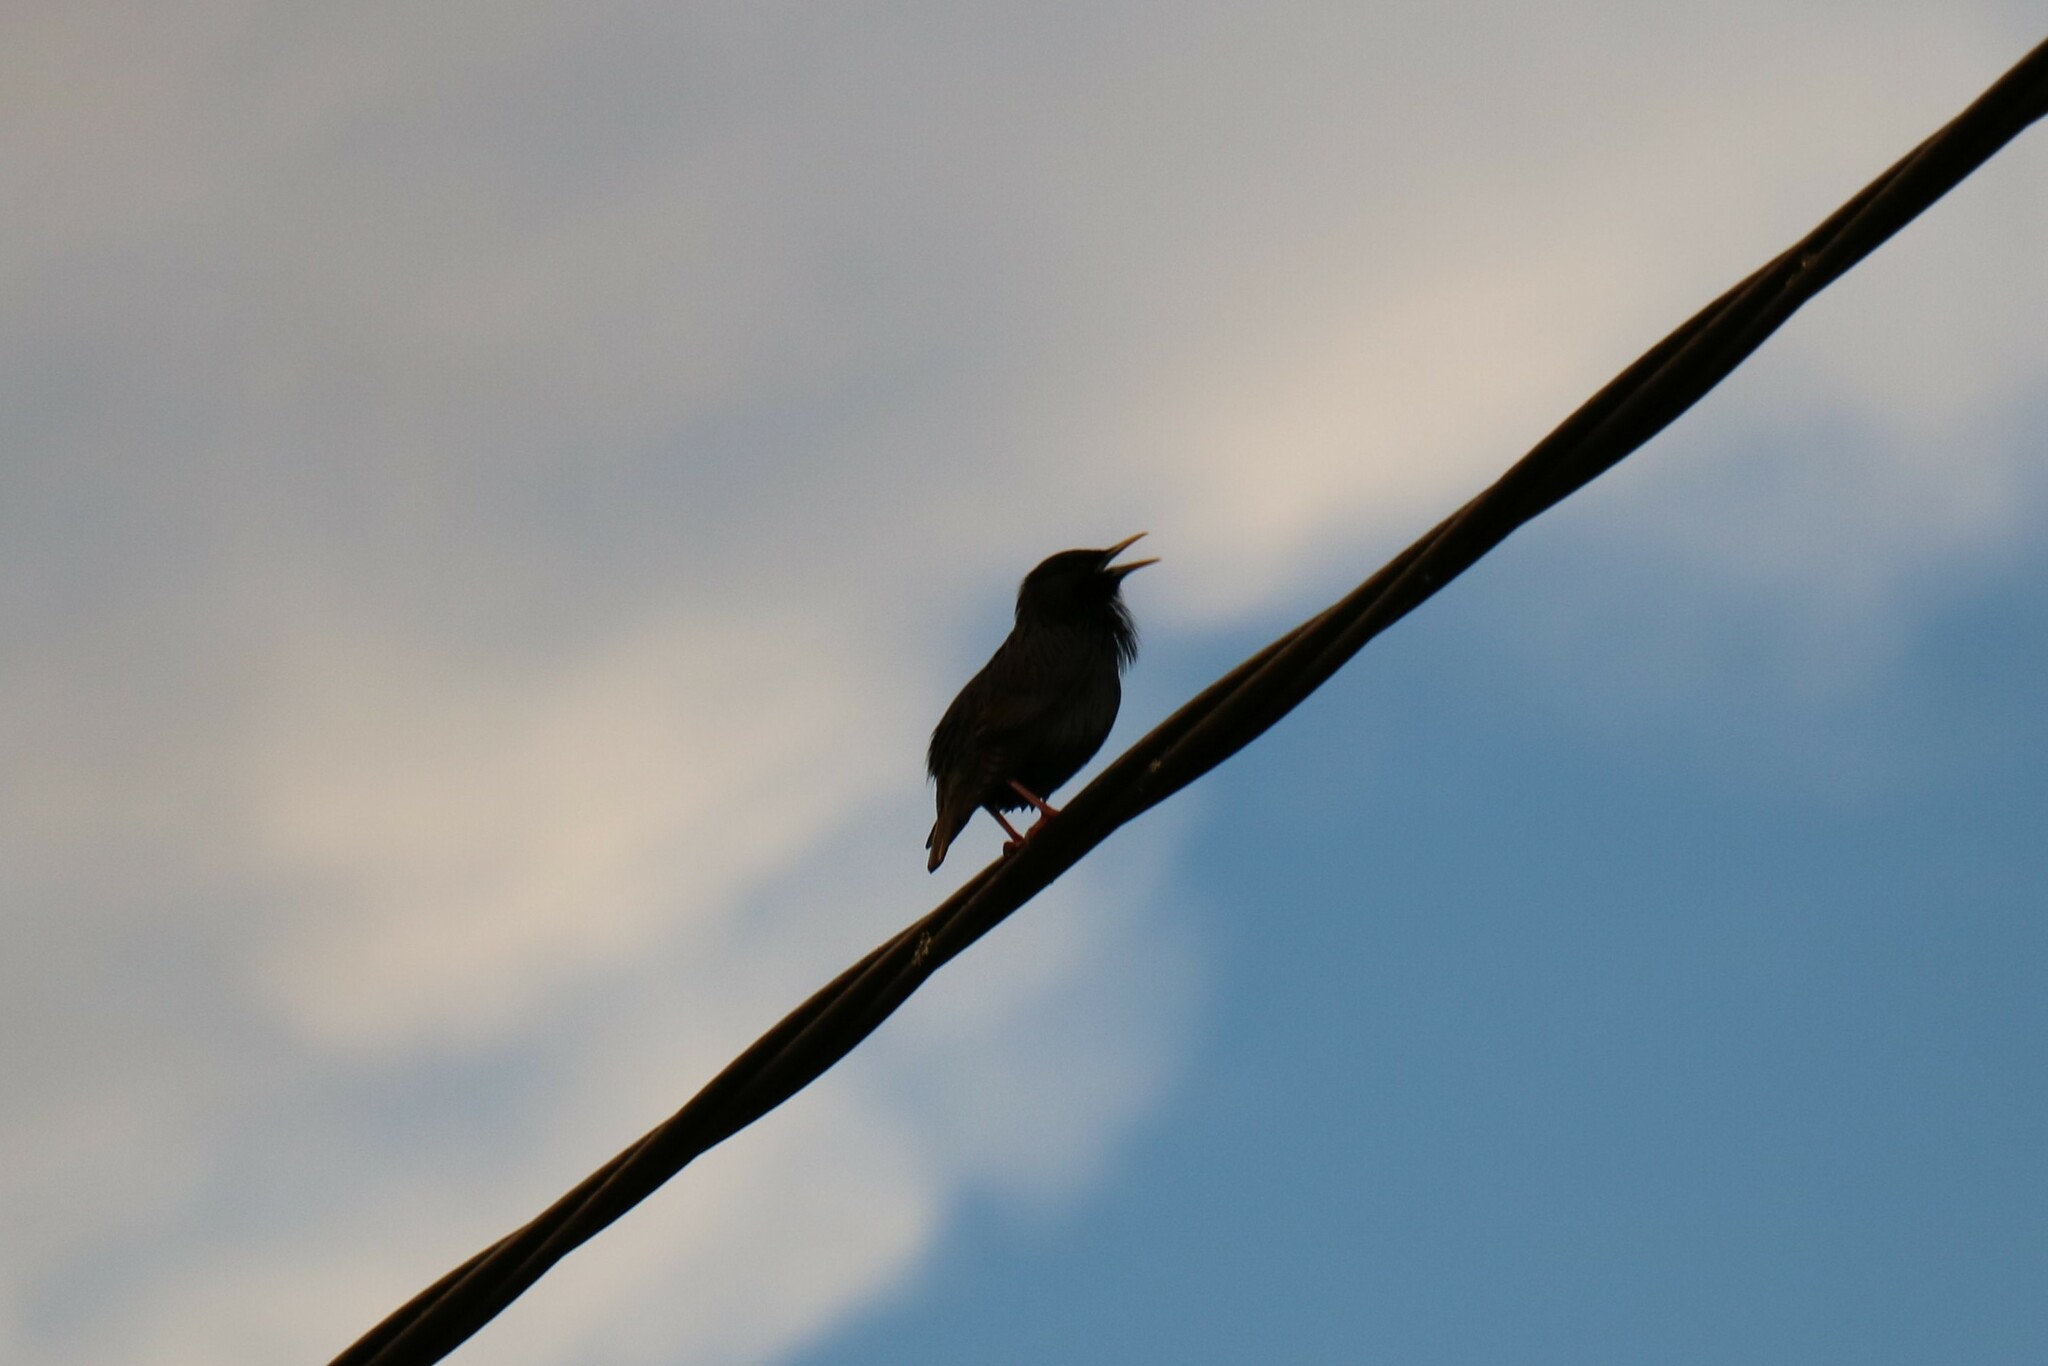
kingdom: Animalia
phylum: Chordata
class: Aves
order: Passeriformes
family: Sturnidae
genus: Sturnus
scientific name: Sturnus unicolor
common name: Spotless starling
